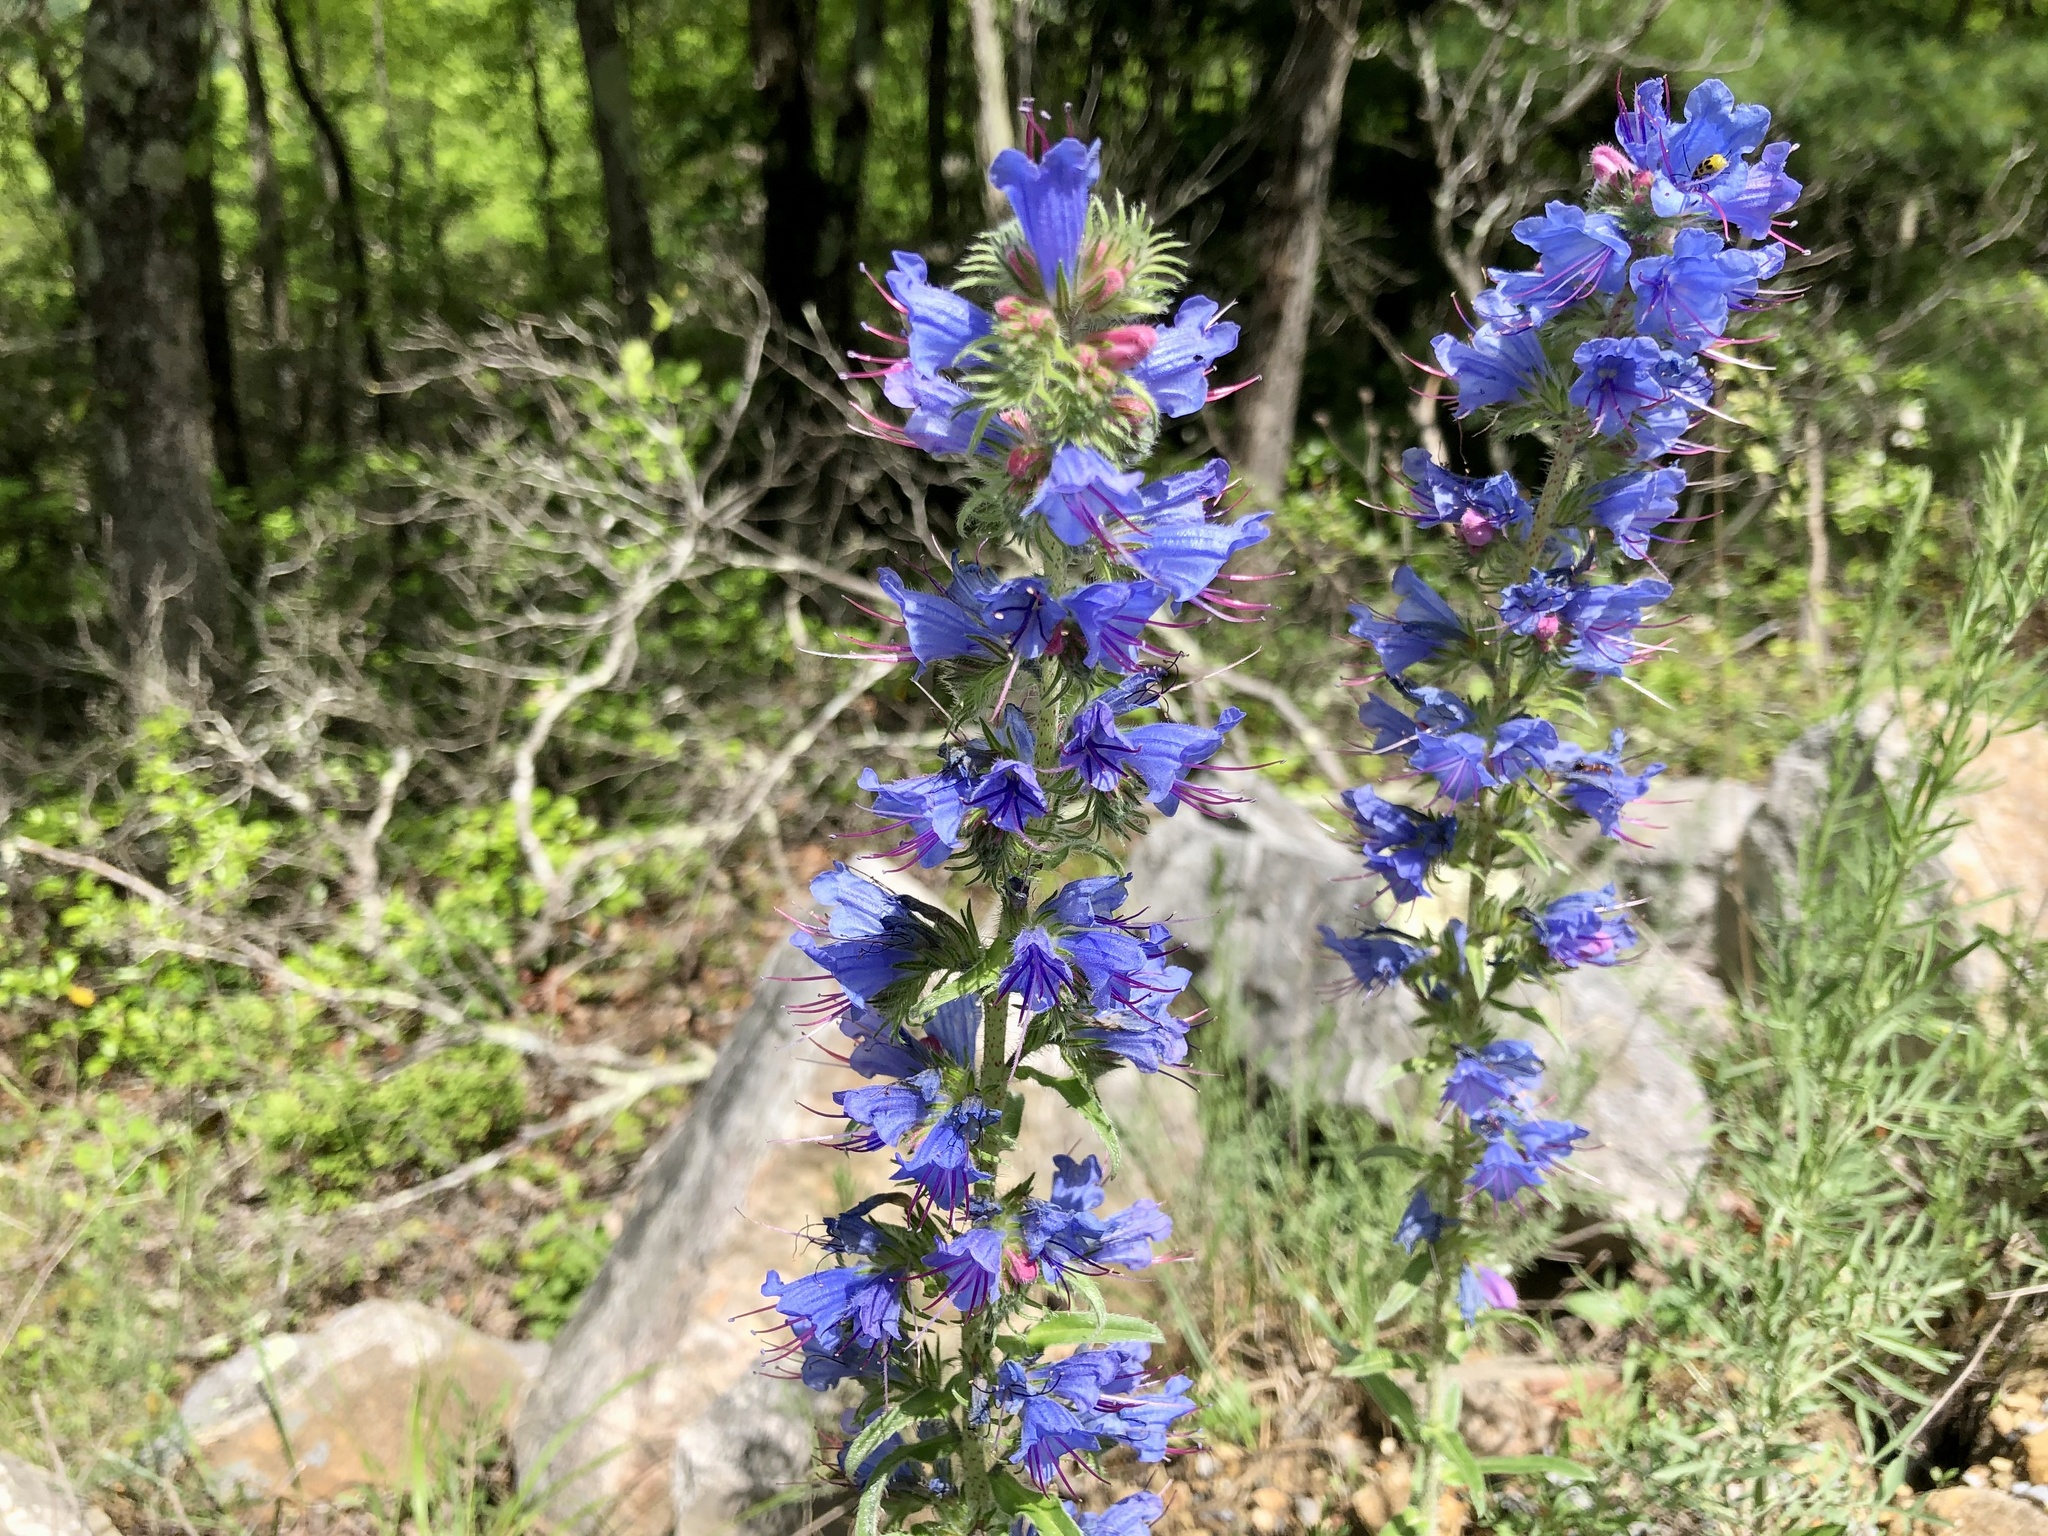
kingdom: Plantae
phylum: Tracheophyta
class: Magnoliopsida
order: Boraginales
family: Boraginaceae
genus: Echium
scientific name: Echium vulgare
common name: Common viper's bugloss
